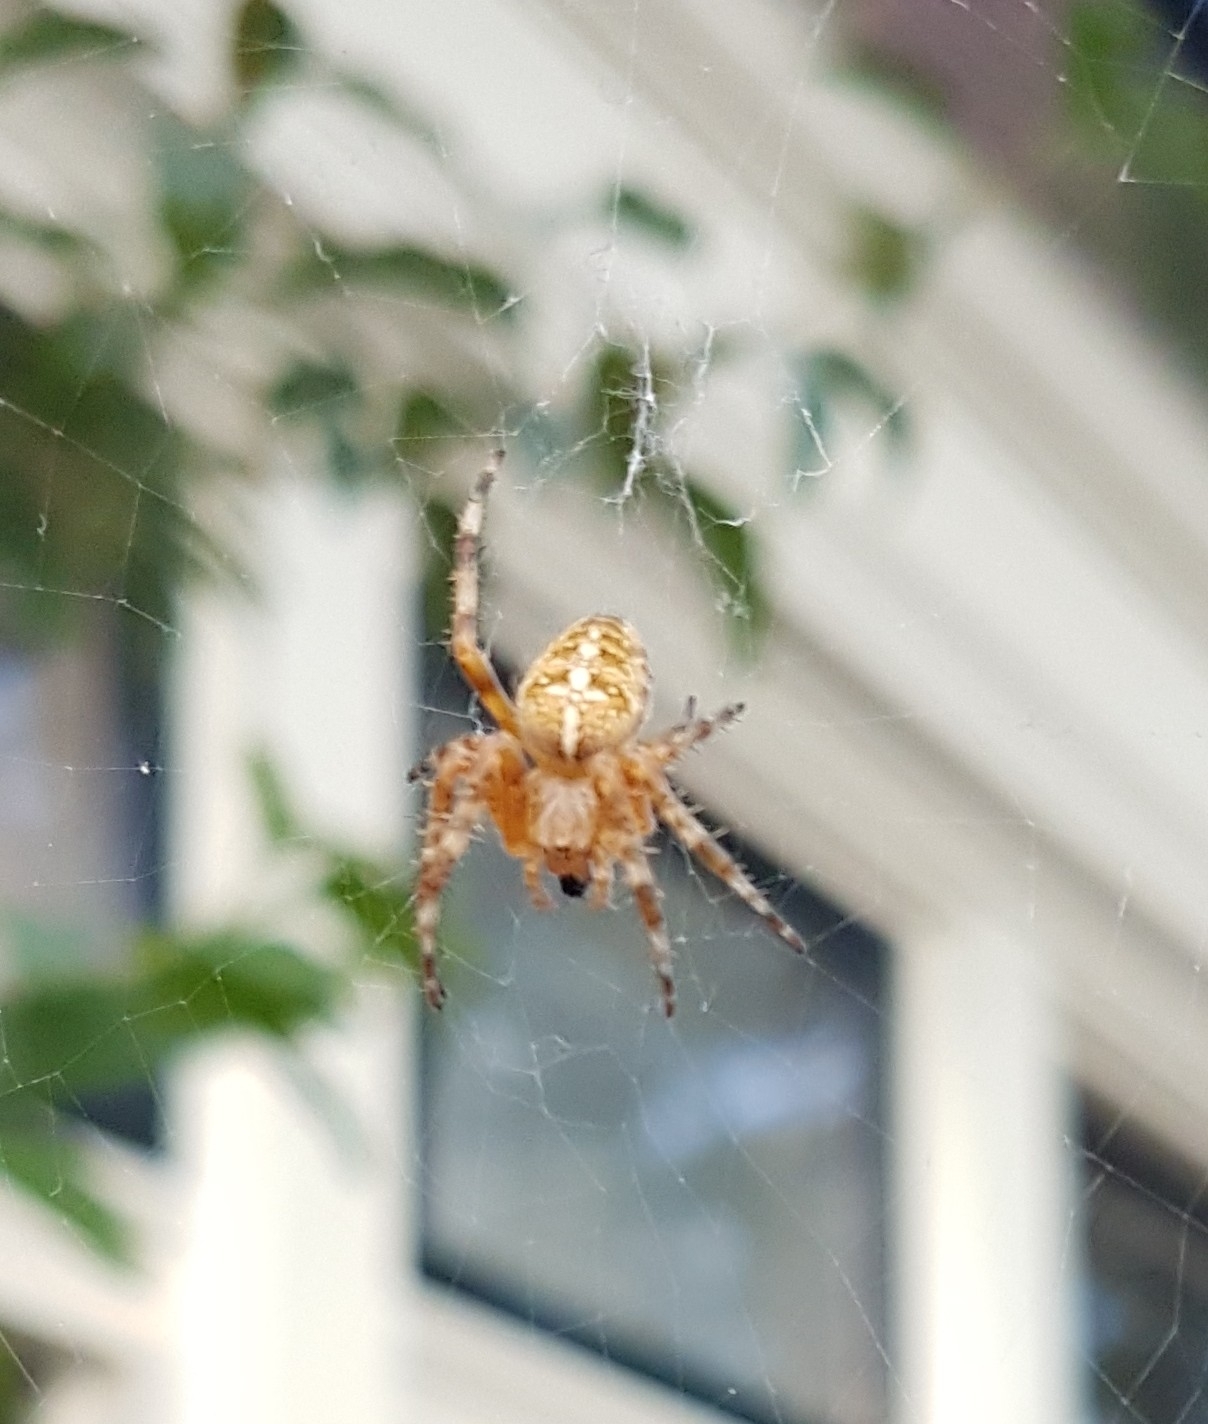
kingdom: Animalia
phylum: Arthropoda
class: Arachnida
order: Araneae
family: Araneidae
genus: Araneus
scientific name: Araneus diadematus
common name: Cross orbweaver
